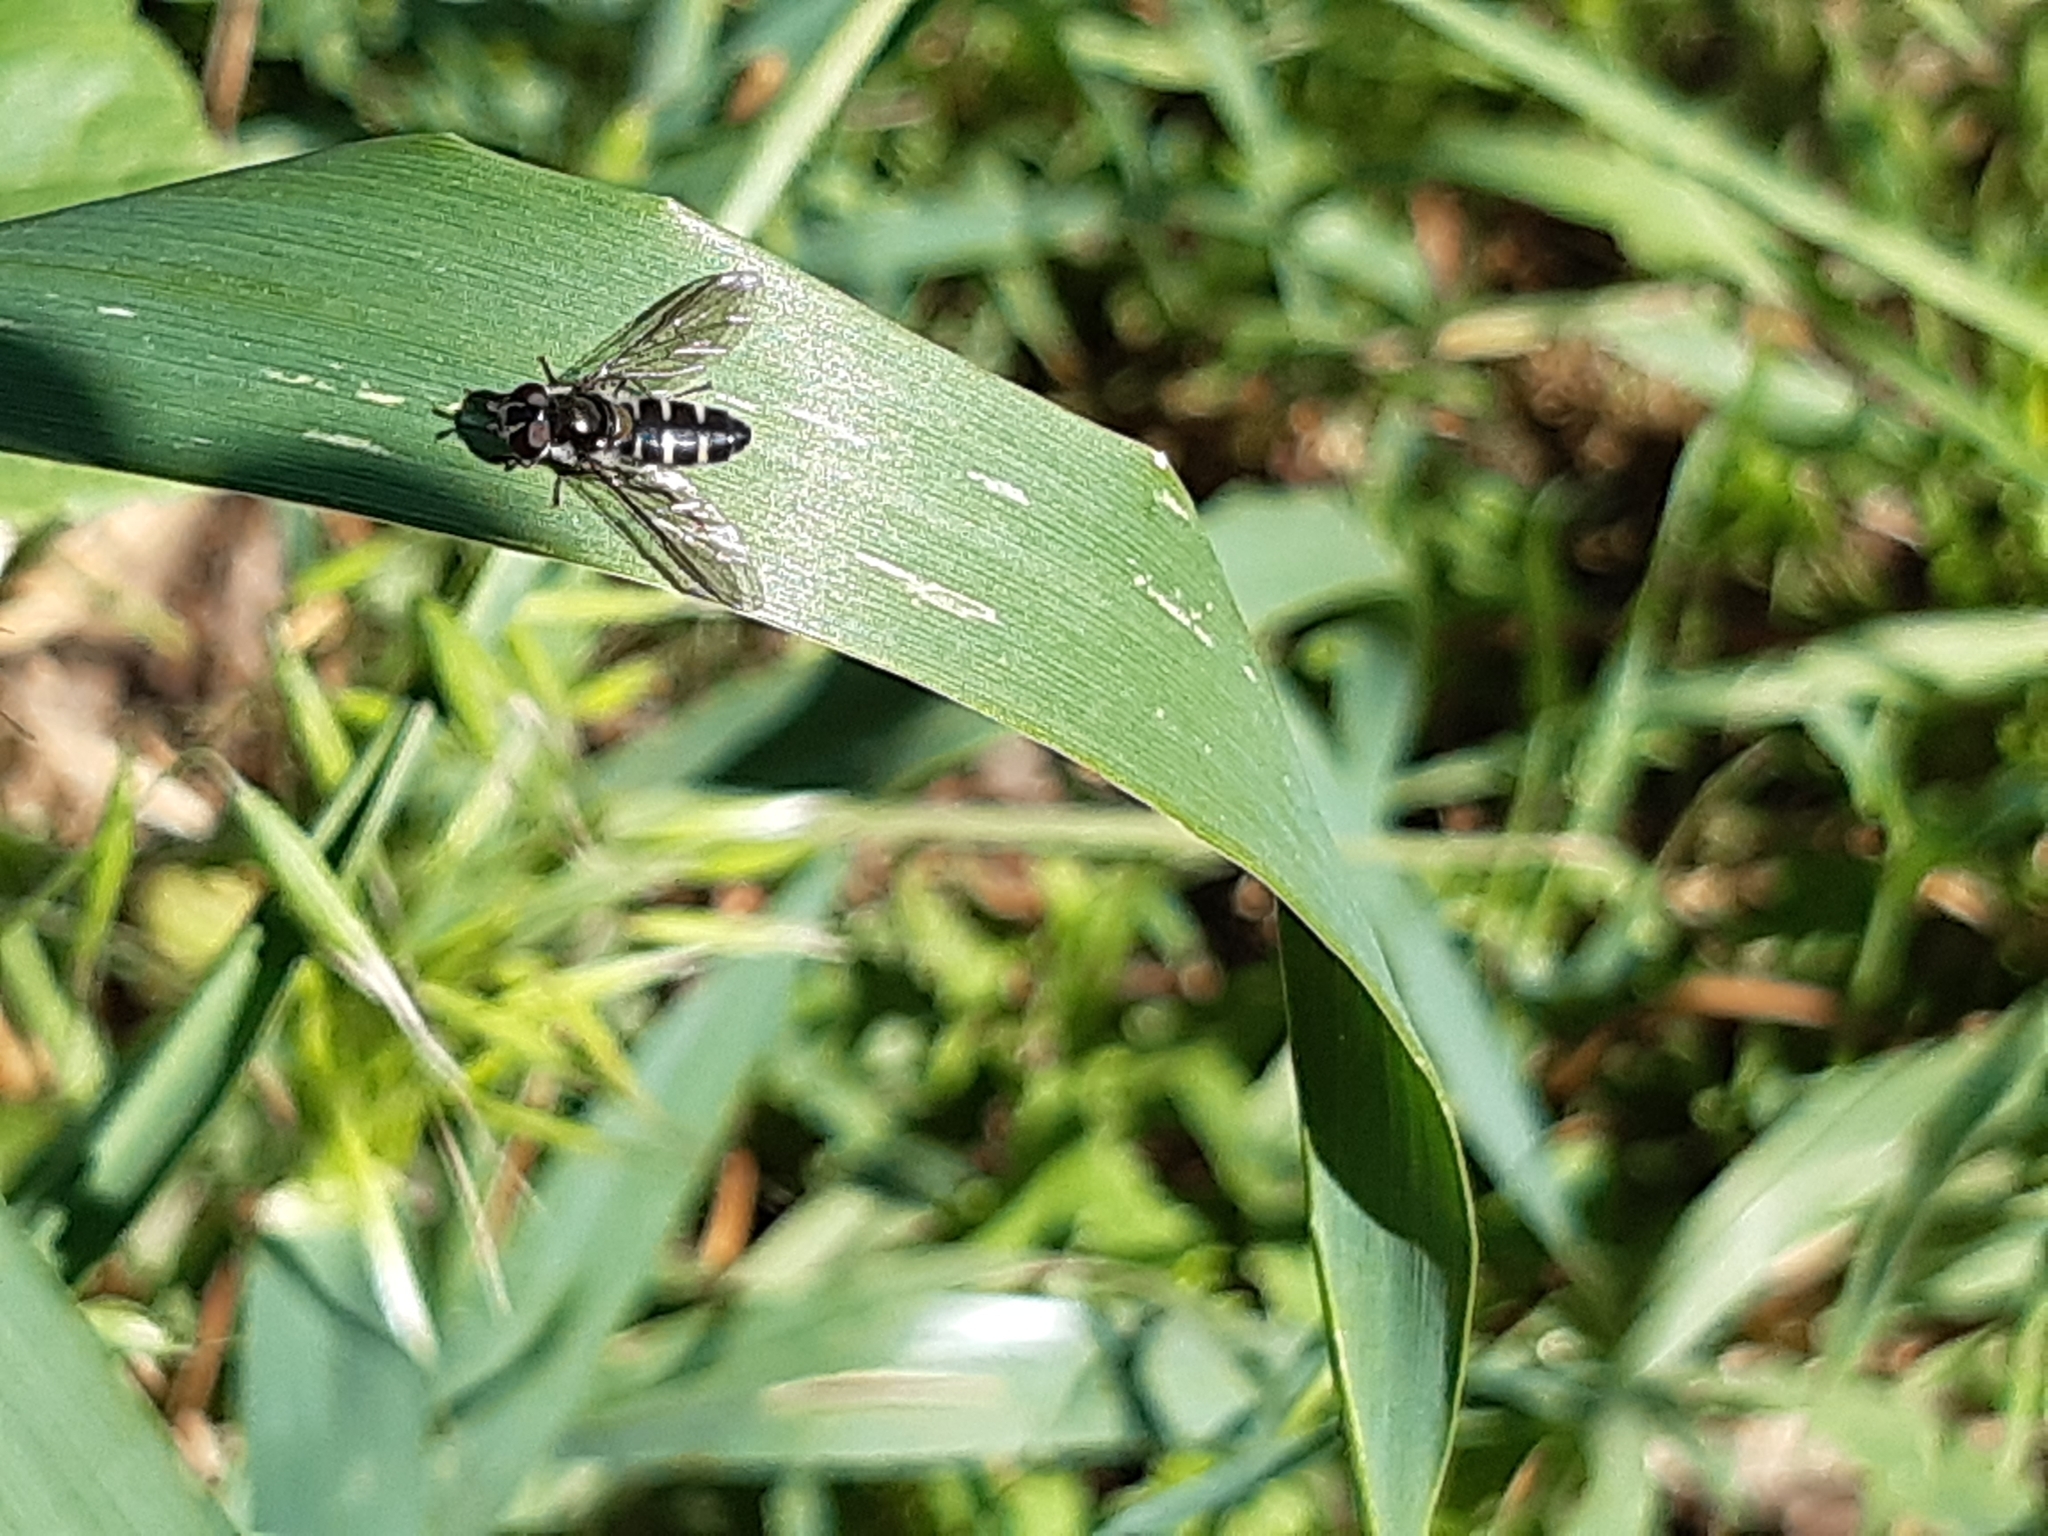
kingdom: Animalia
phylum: Arthropoda
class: Insecta
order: Diptera
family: Syrphidae
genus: Melangyna
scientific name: Melangyna novaezelandiae
